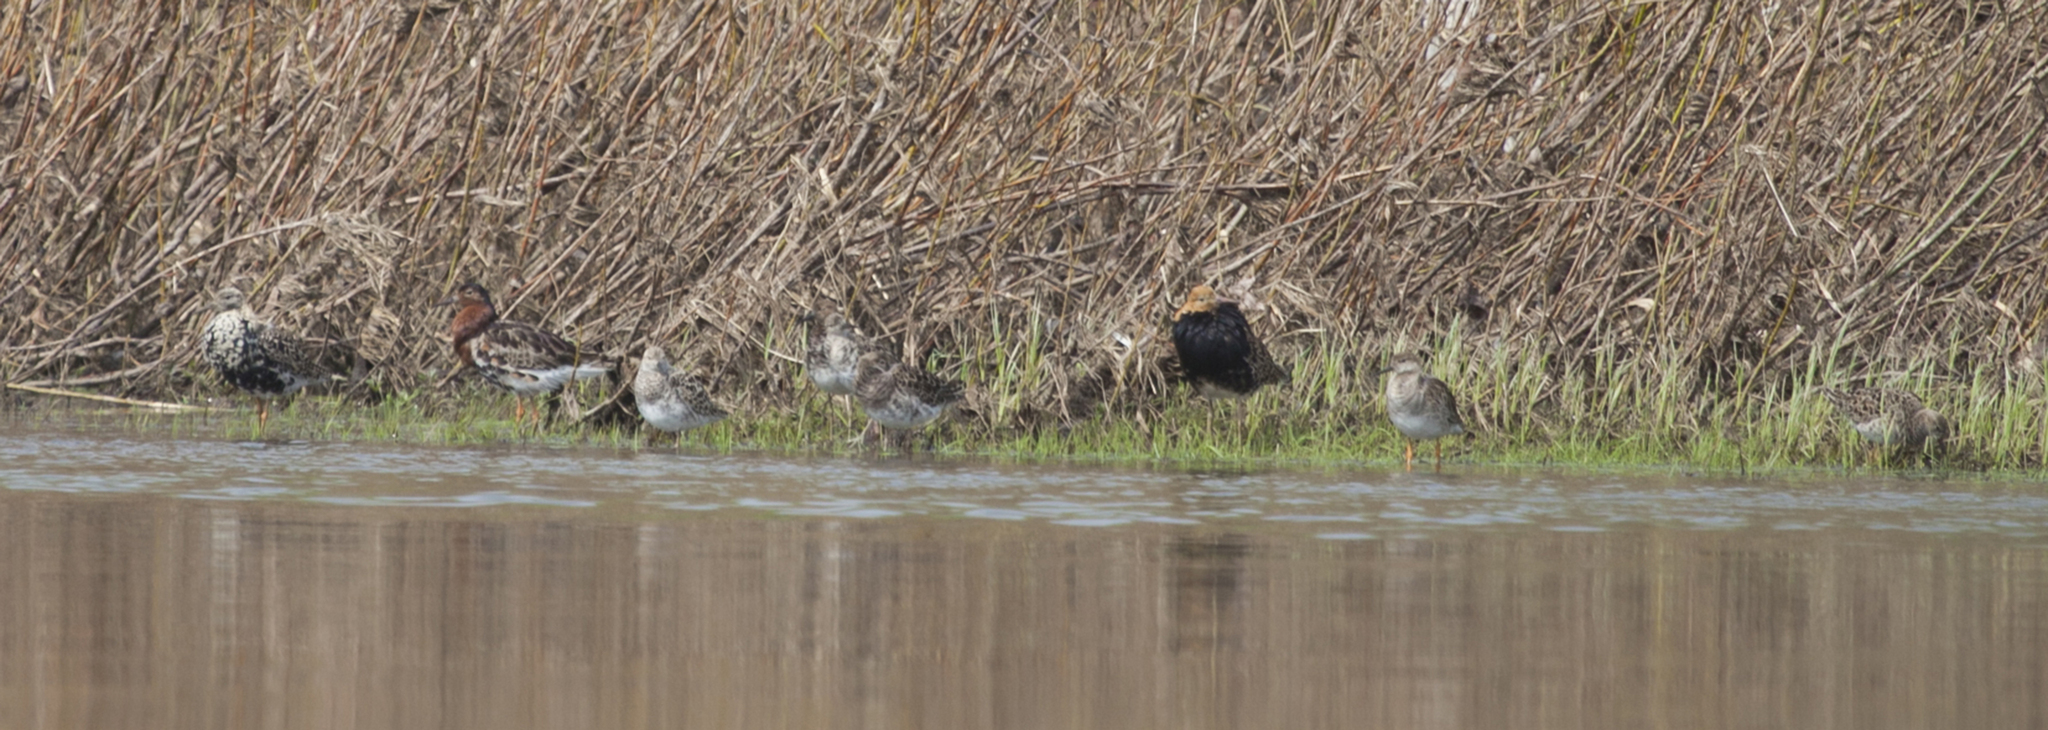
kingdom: Animalia
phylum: Chordata
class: Aves
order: Charadriiformes
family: Scolopacidae
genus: Calidris
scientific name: Calidris pugnax
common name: Ruff
